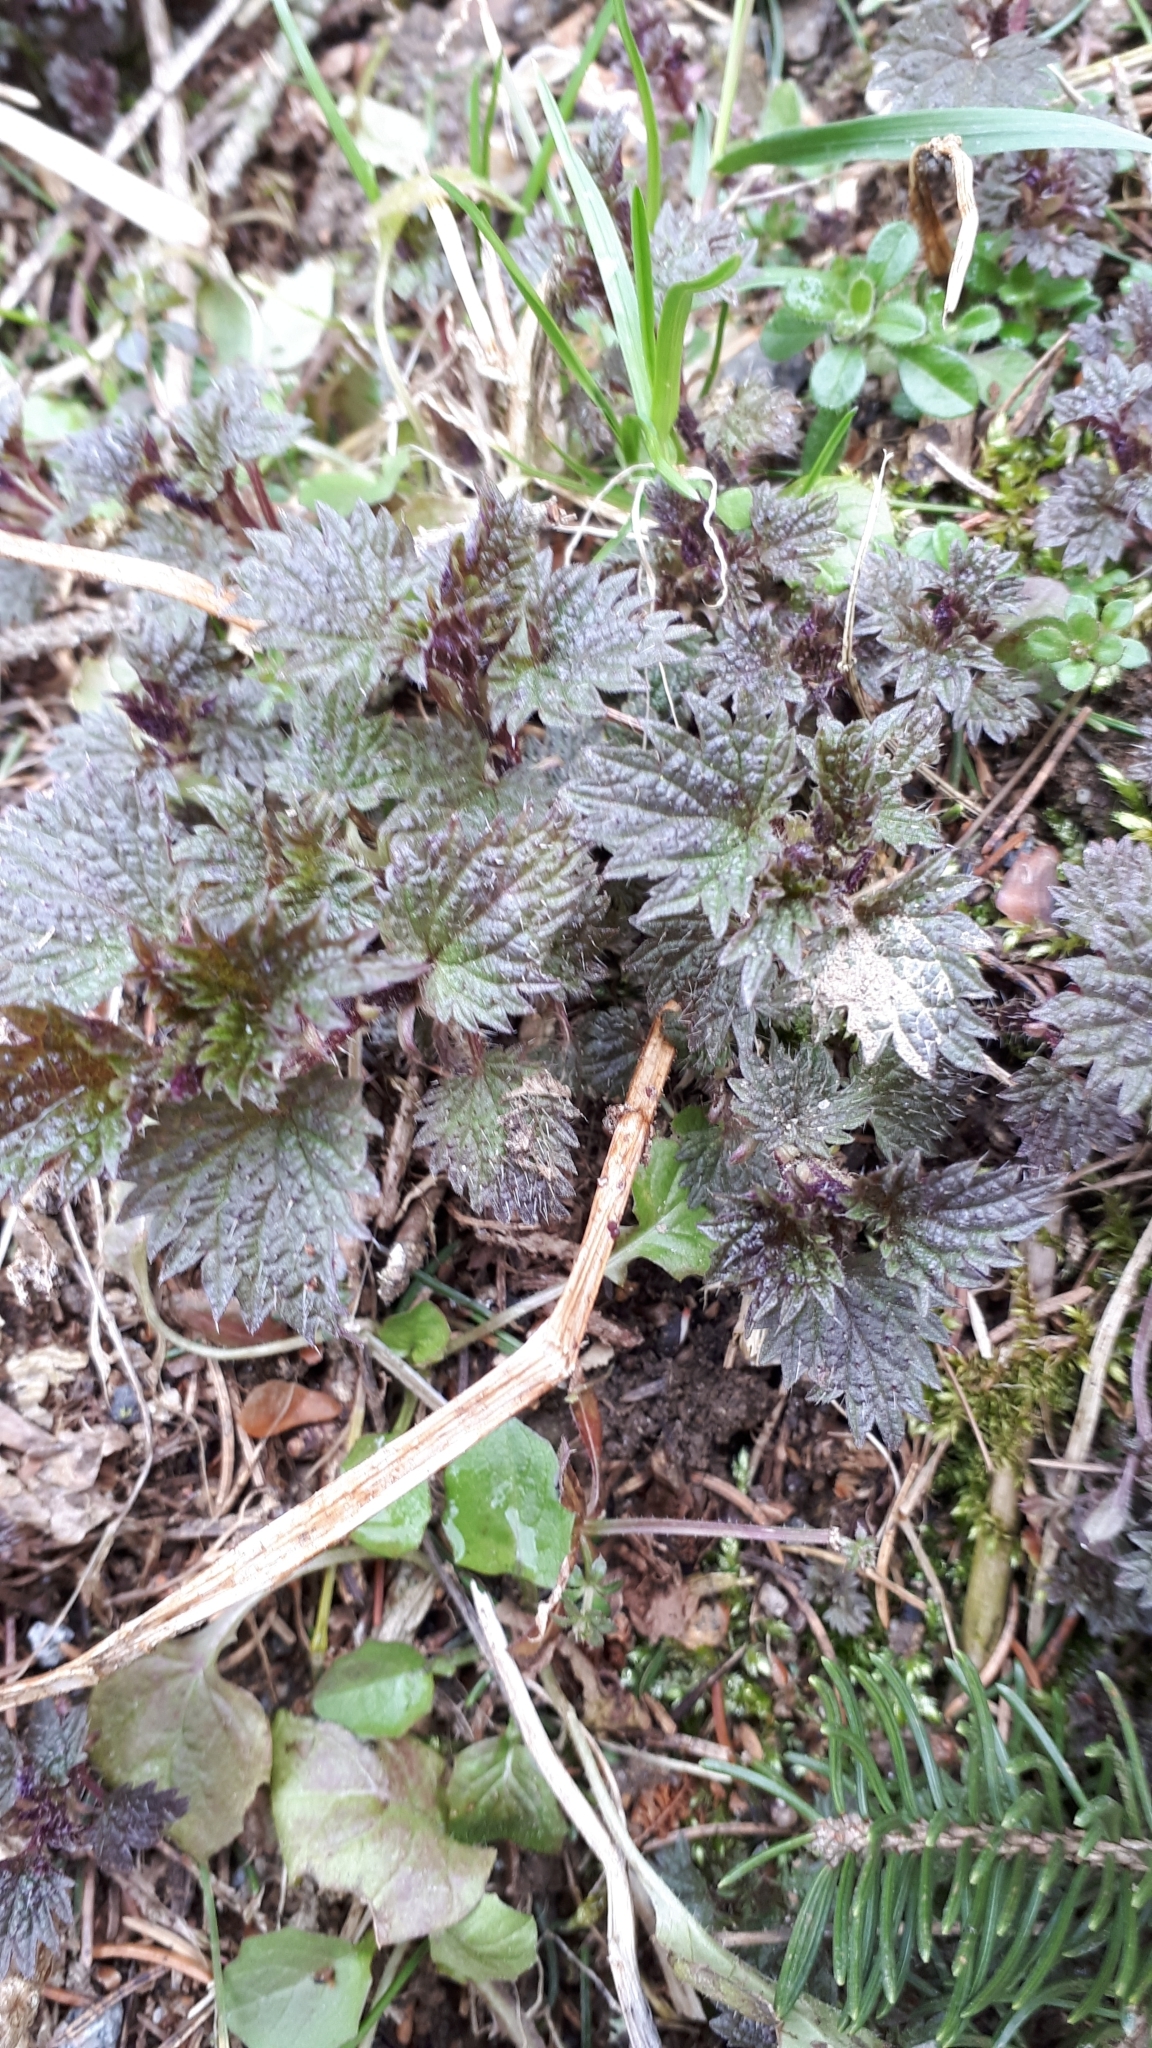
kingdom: Plantae
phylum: Tracheophyta
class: Magnoliopsida
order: Rosales
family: Urticaceae
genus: Urtica
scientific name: Urtica dioica
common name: Common nettle
